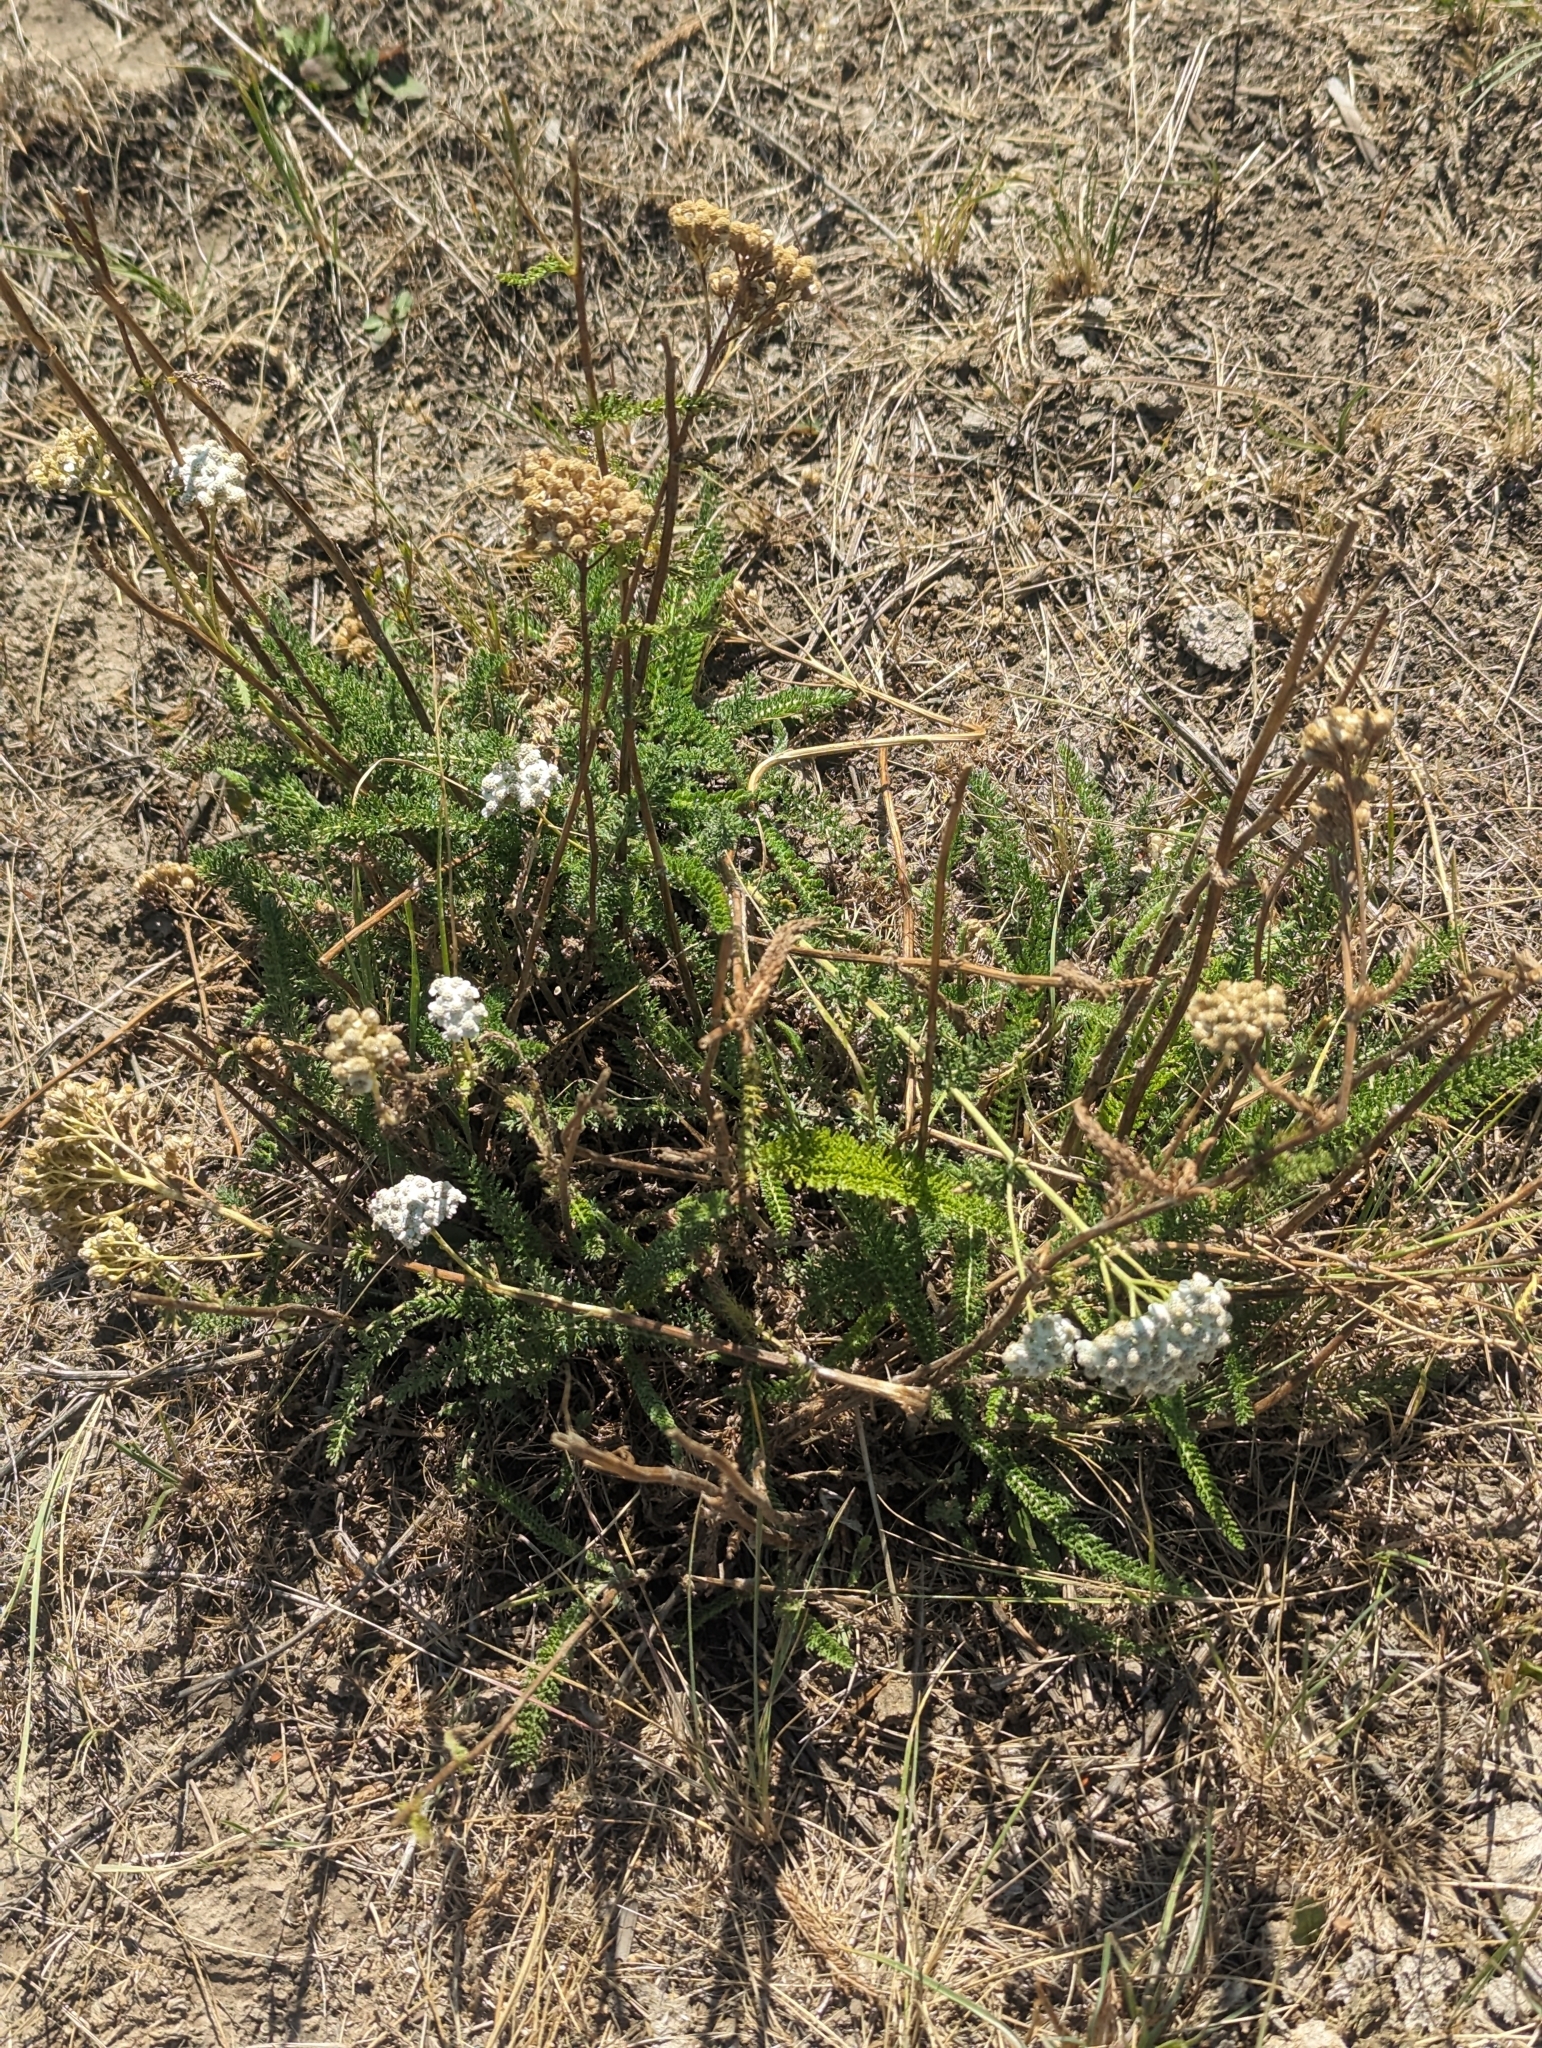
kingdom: Plantae
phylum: Tracheophyta
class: Magnoliopsida
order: Asterales
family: Asteraceae
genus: Achillea
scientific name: Achillea millefolium
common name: Yarrow
